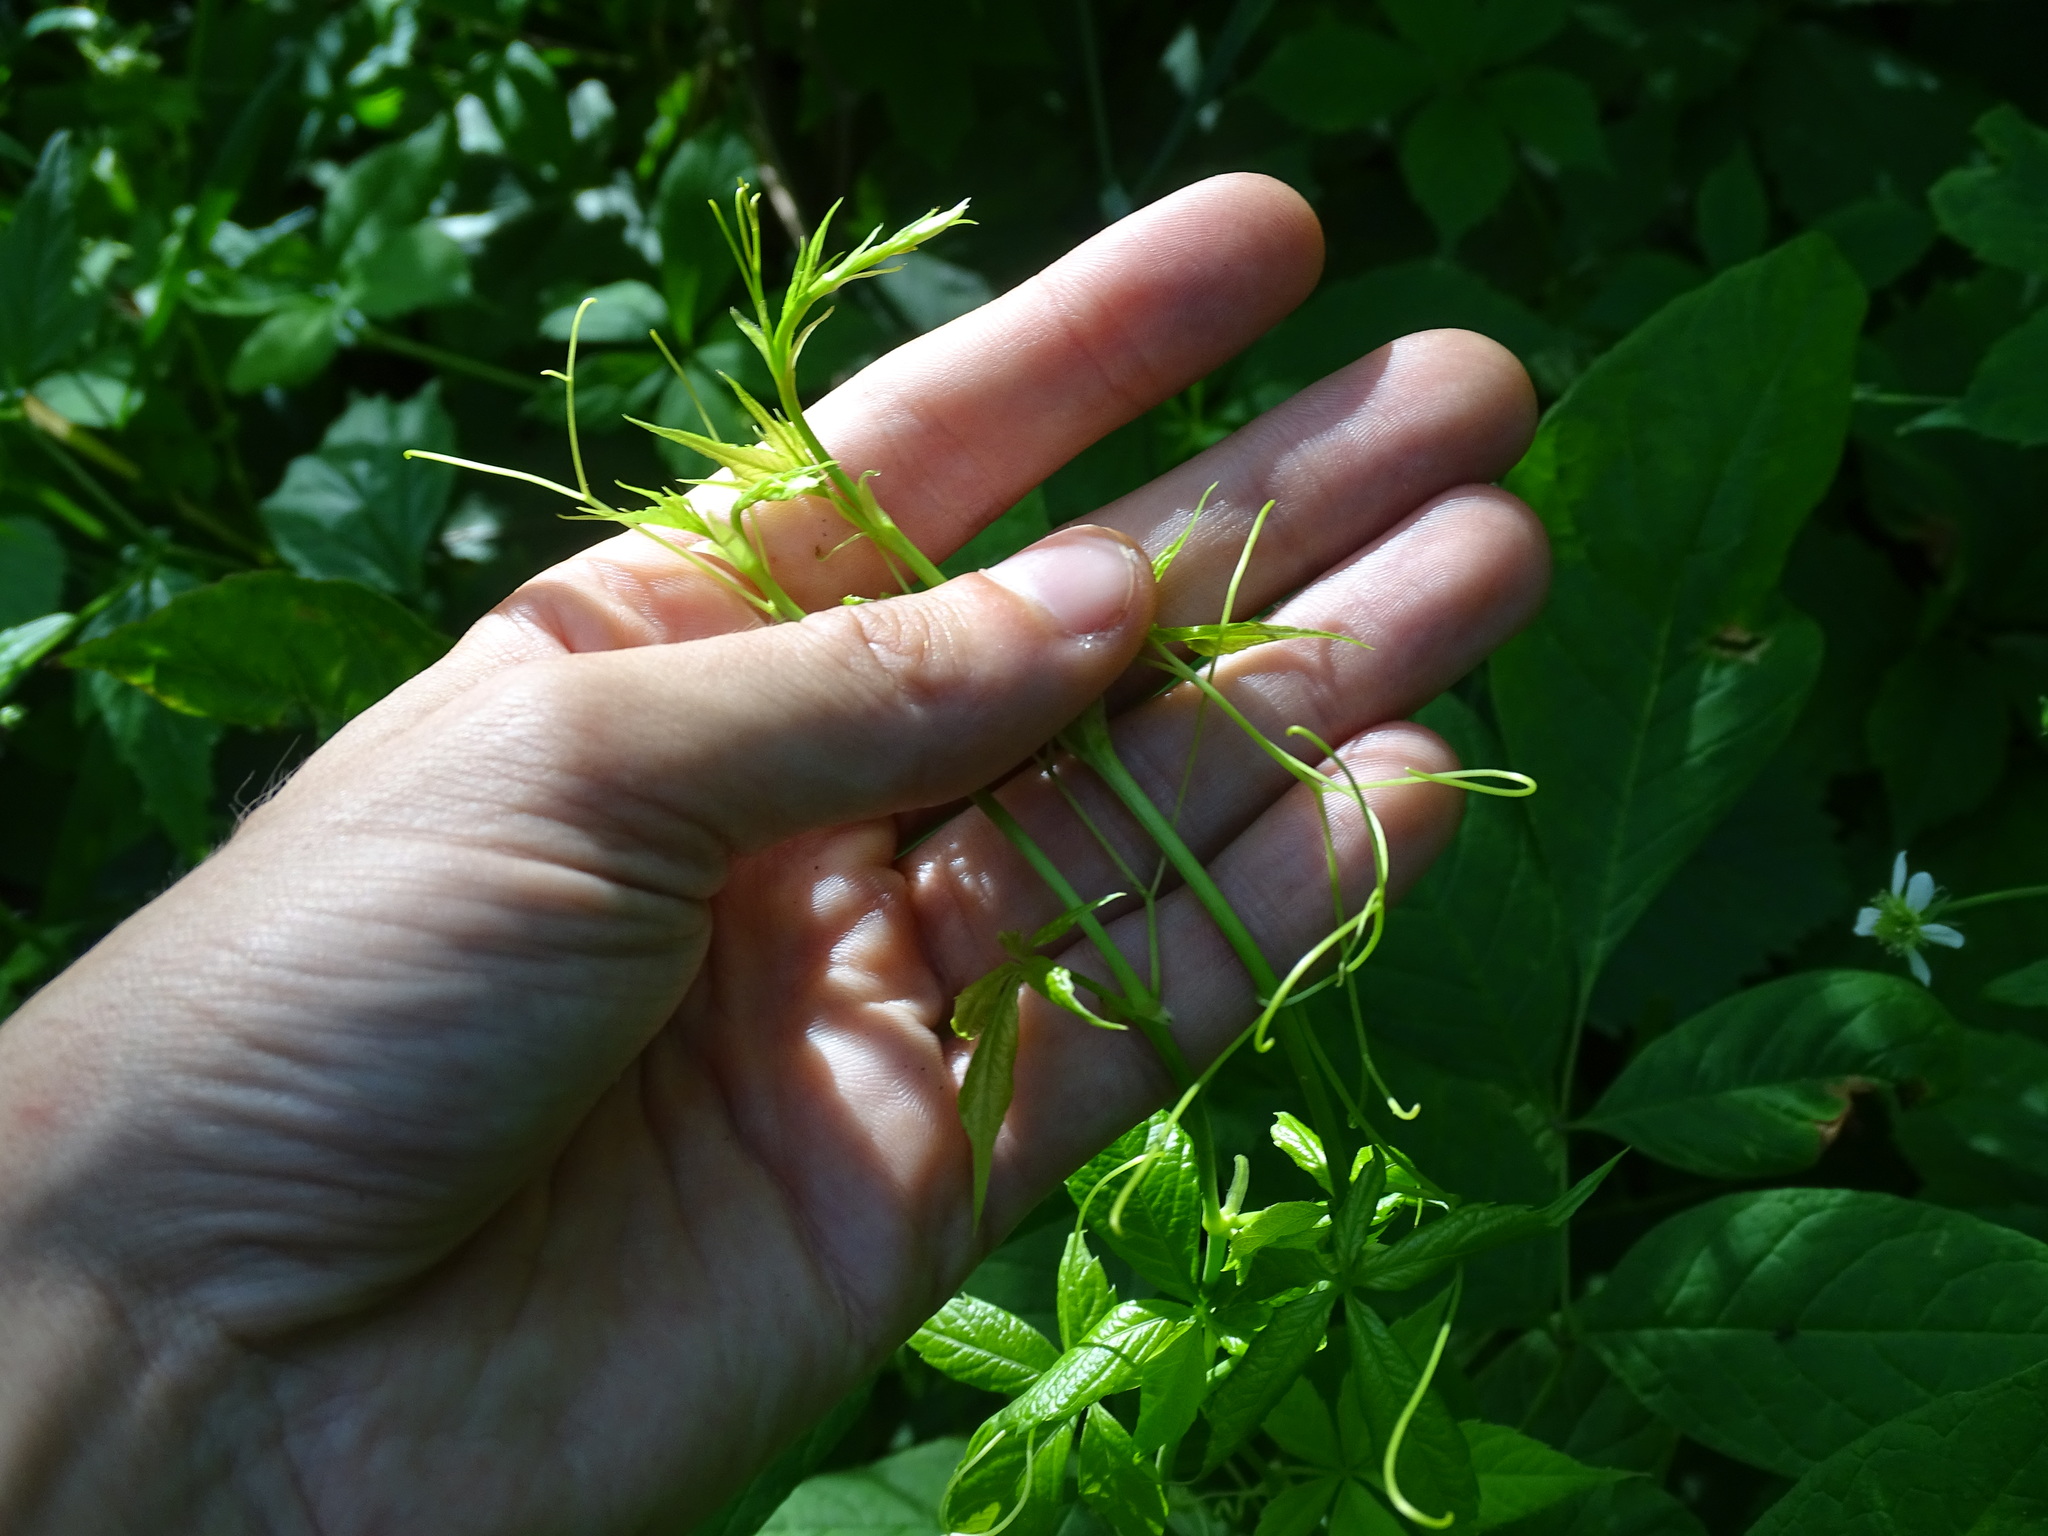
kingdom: Plantae
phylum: Tracheophyta
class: Magnoliopsida
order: Vitales
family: Vitaceae
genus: Parthenocissus
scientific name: Parthenocissus inserta
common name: False virginia-creeper
